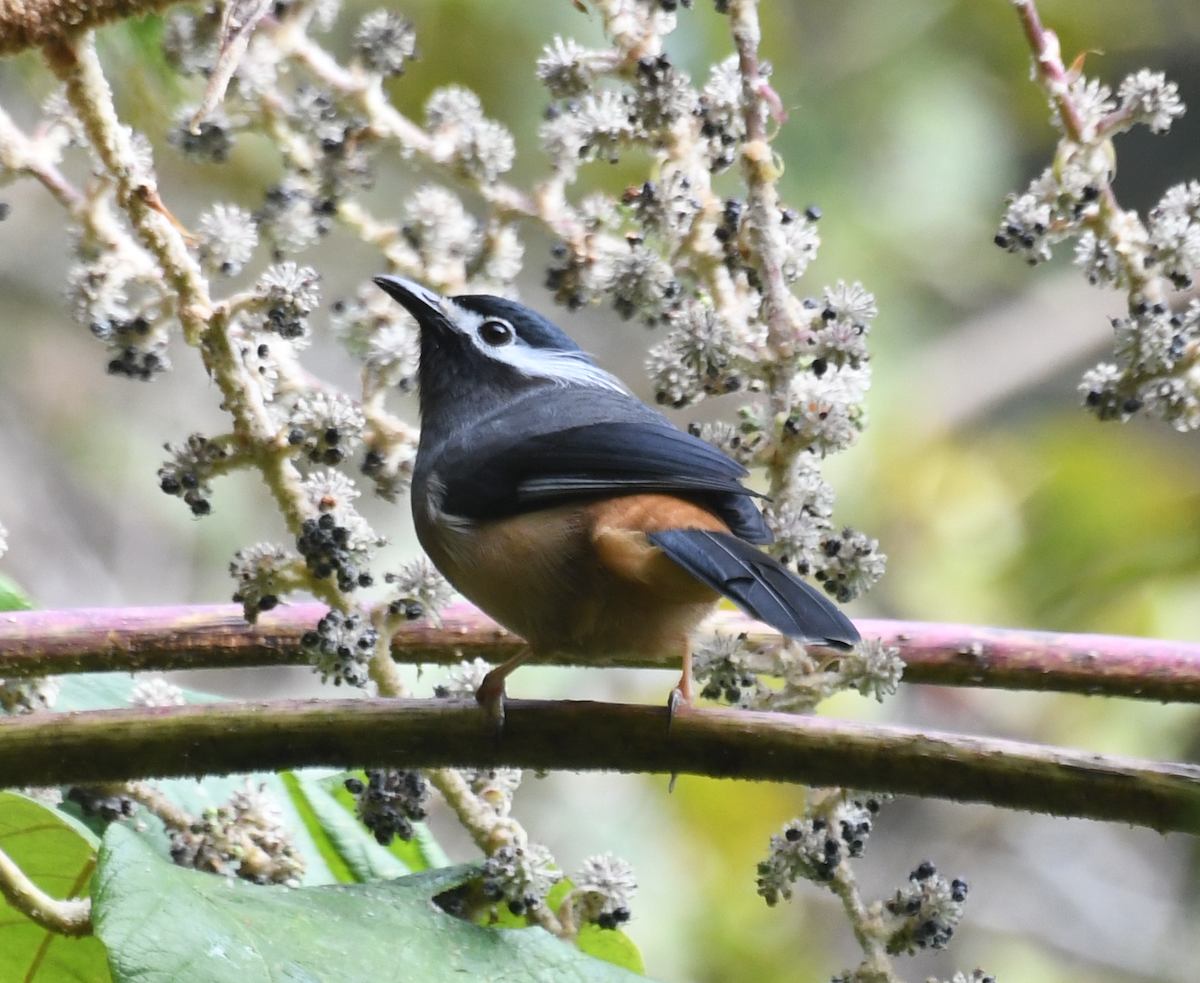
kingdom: Animalia
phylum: Chordata
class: Aves
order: Passeriformes
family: Leiothrichidae
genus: Heterophasia
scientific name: Heterophasia auricularis
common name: White-eared sibia
